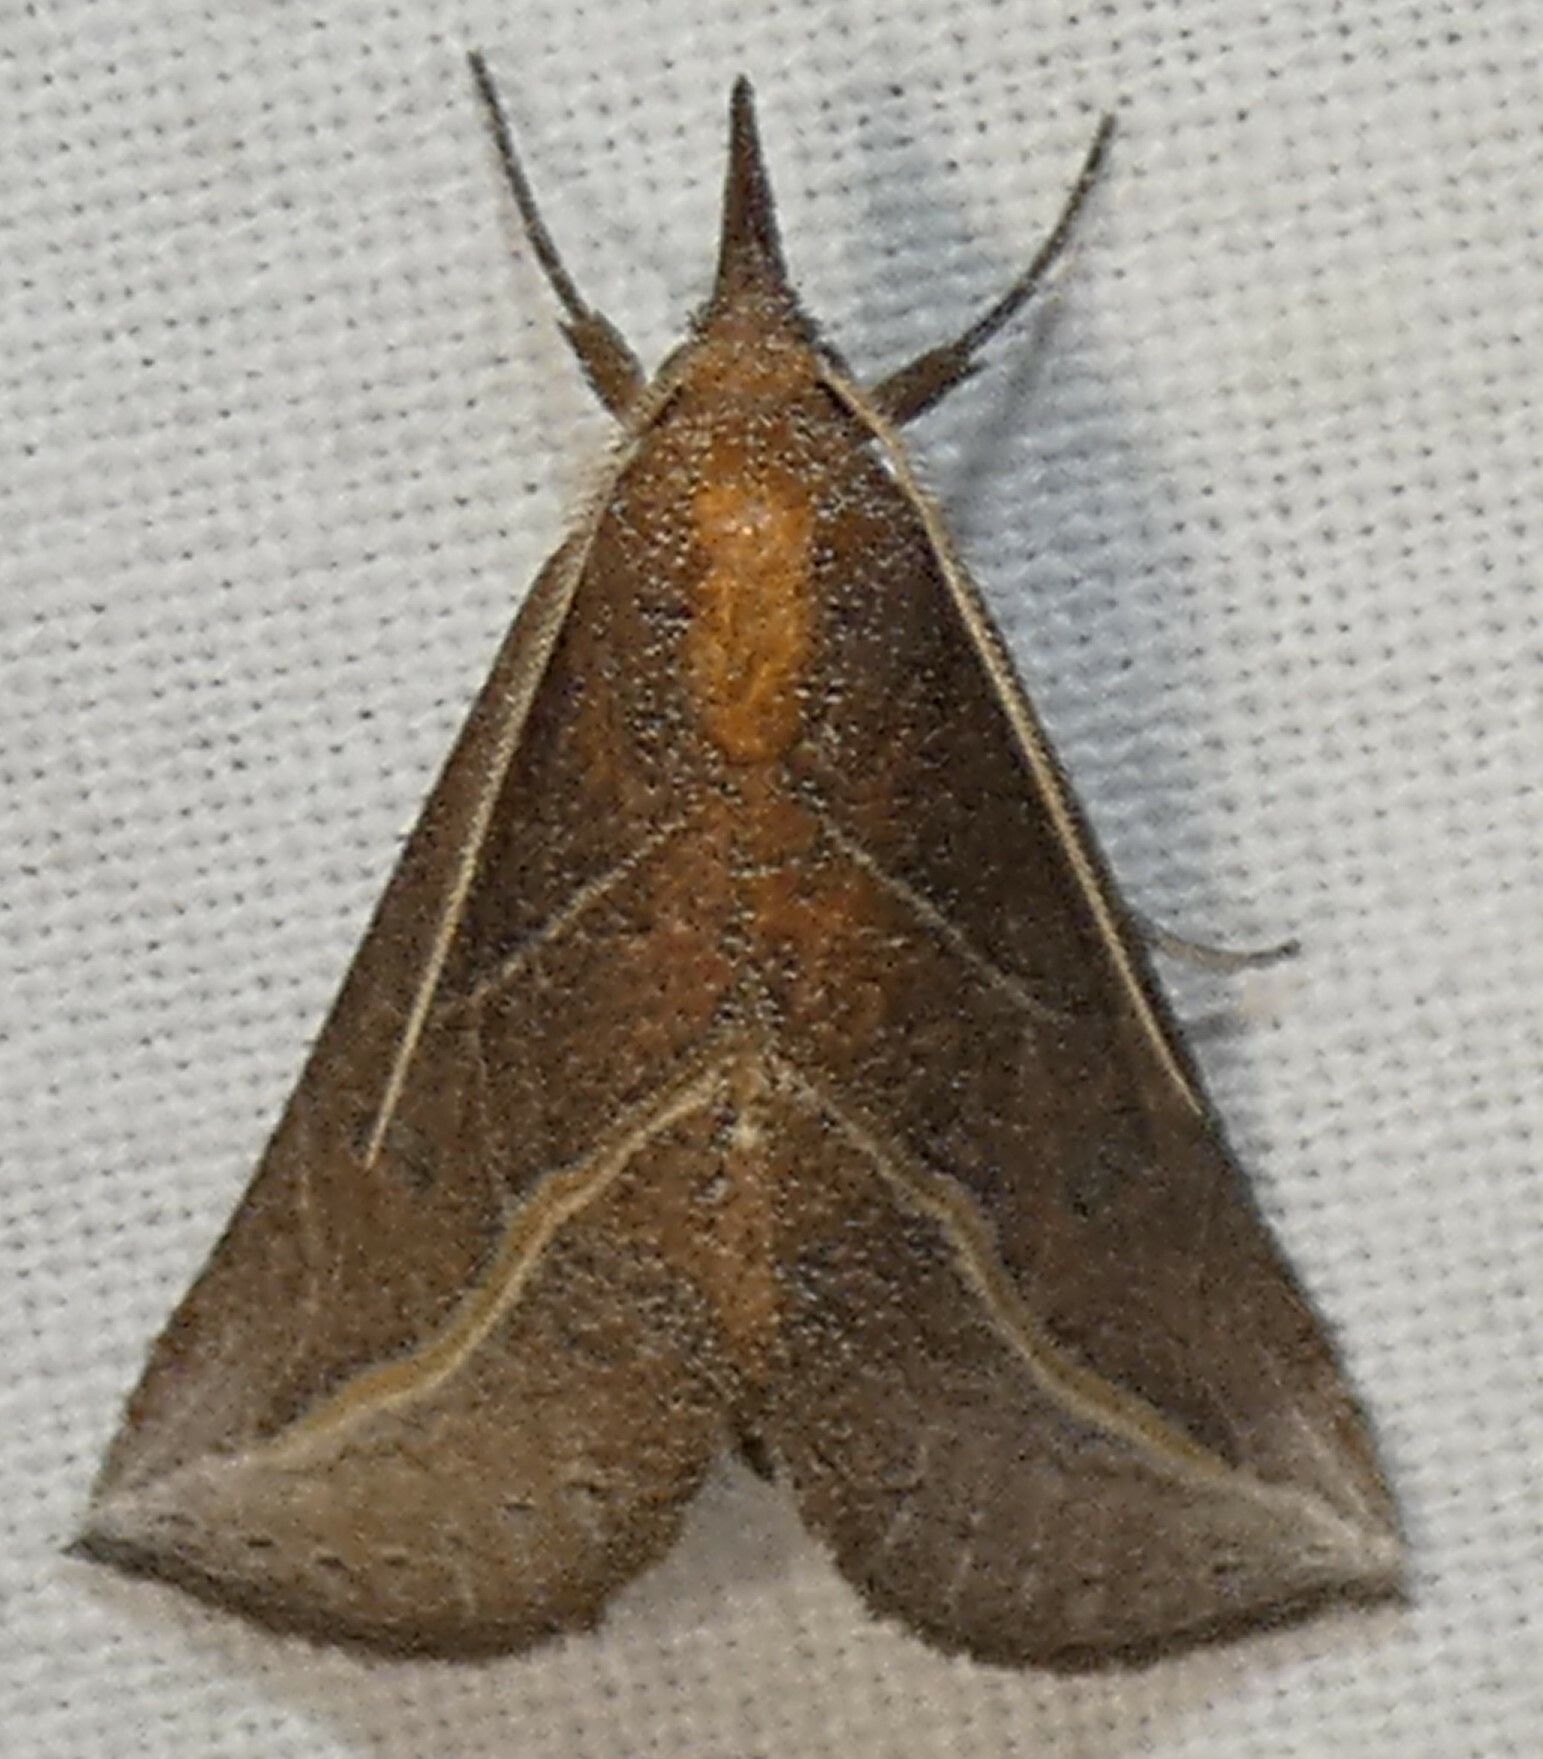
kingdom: Animalia
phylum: Arthropoda
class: Insecta
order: Lepidoptera
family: Erebidae
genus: Phyprosopus
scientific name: Phyprosopus callitrichoides
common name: Curved-lined owlet
